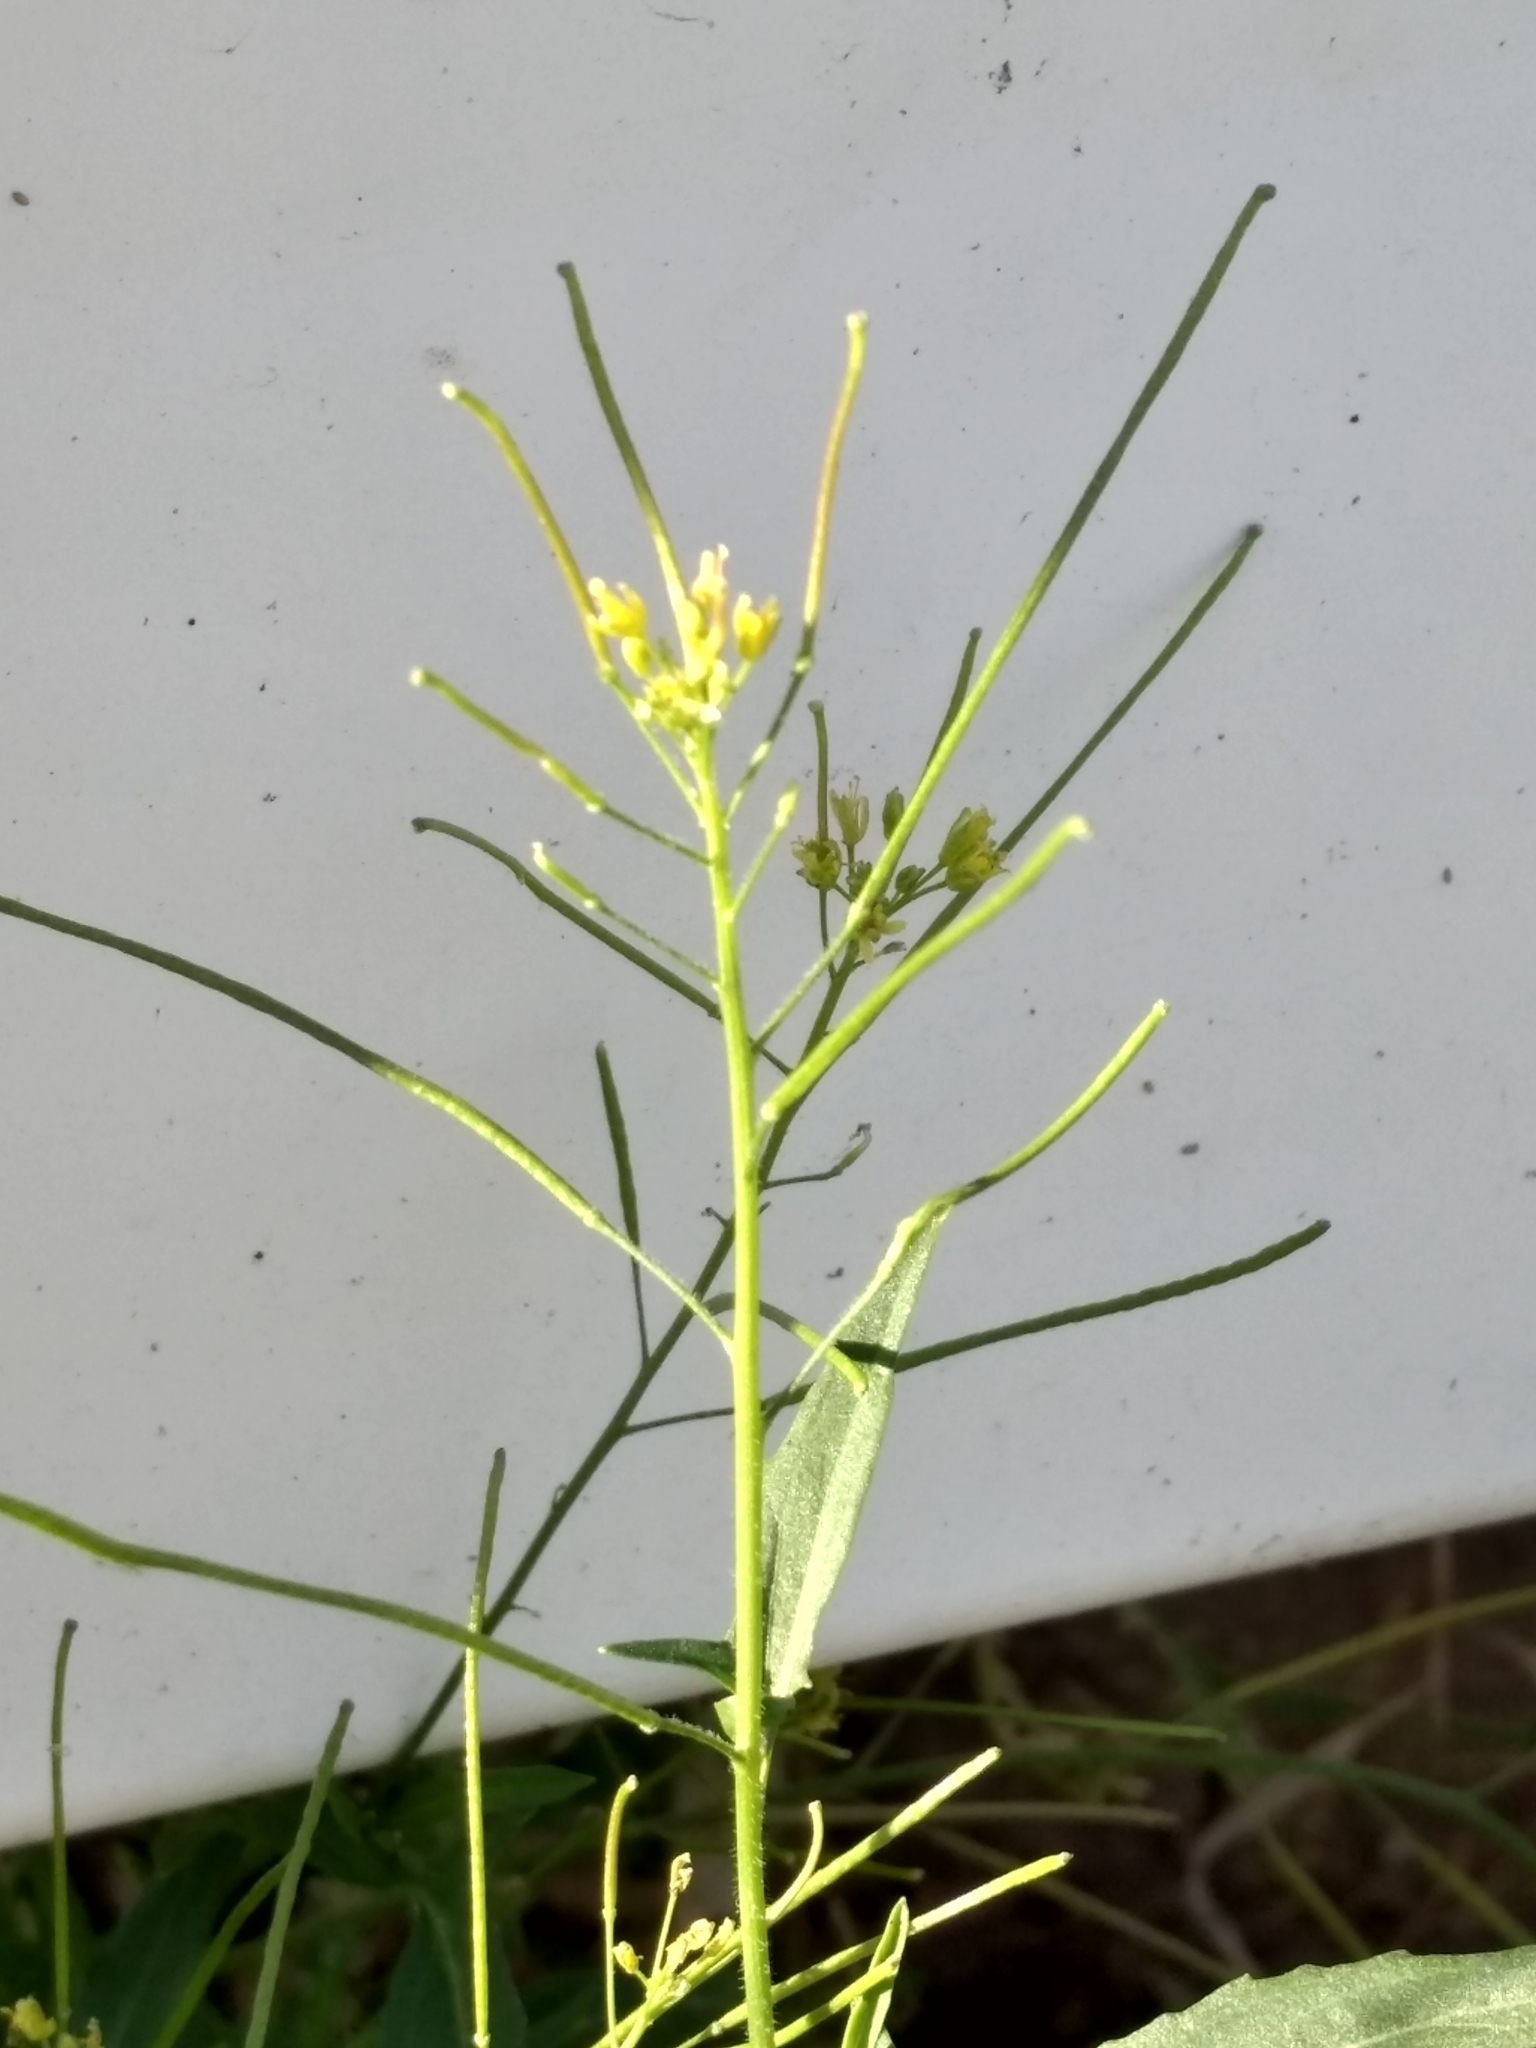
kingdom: Plantae
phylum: Tracheophyta
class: Magnoliopsida
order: Brassicales
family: Brassicaceae
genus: Sisymbrium
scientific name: Sisymbrium irio
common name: London rocket
